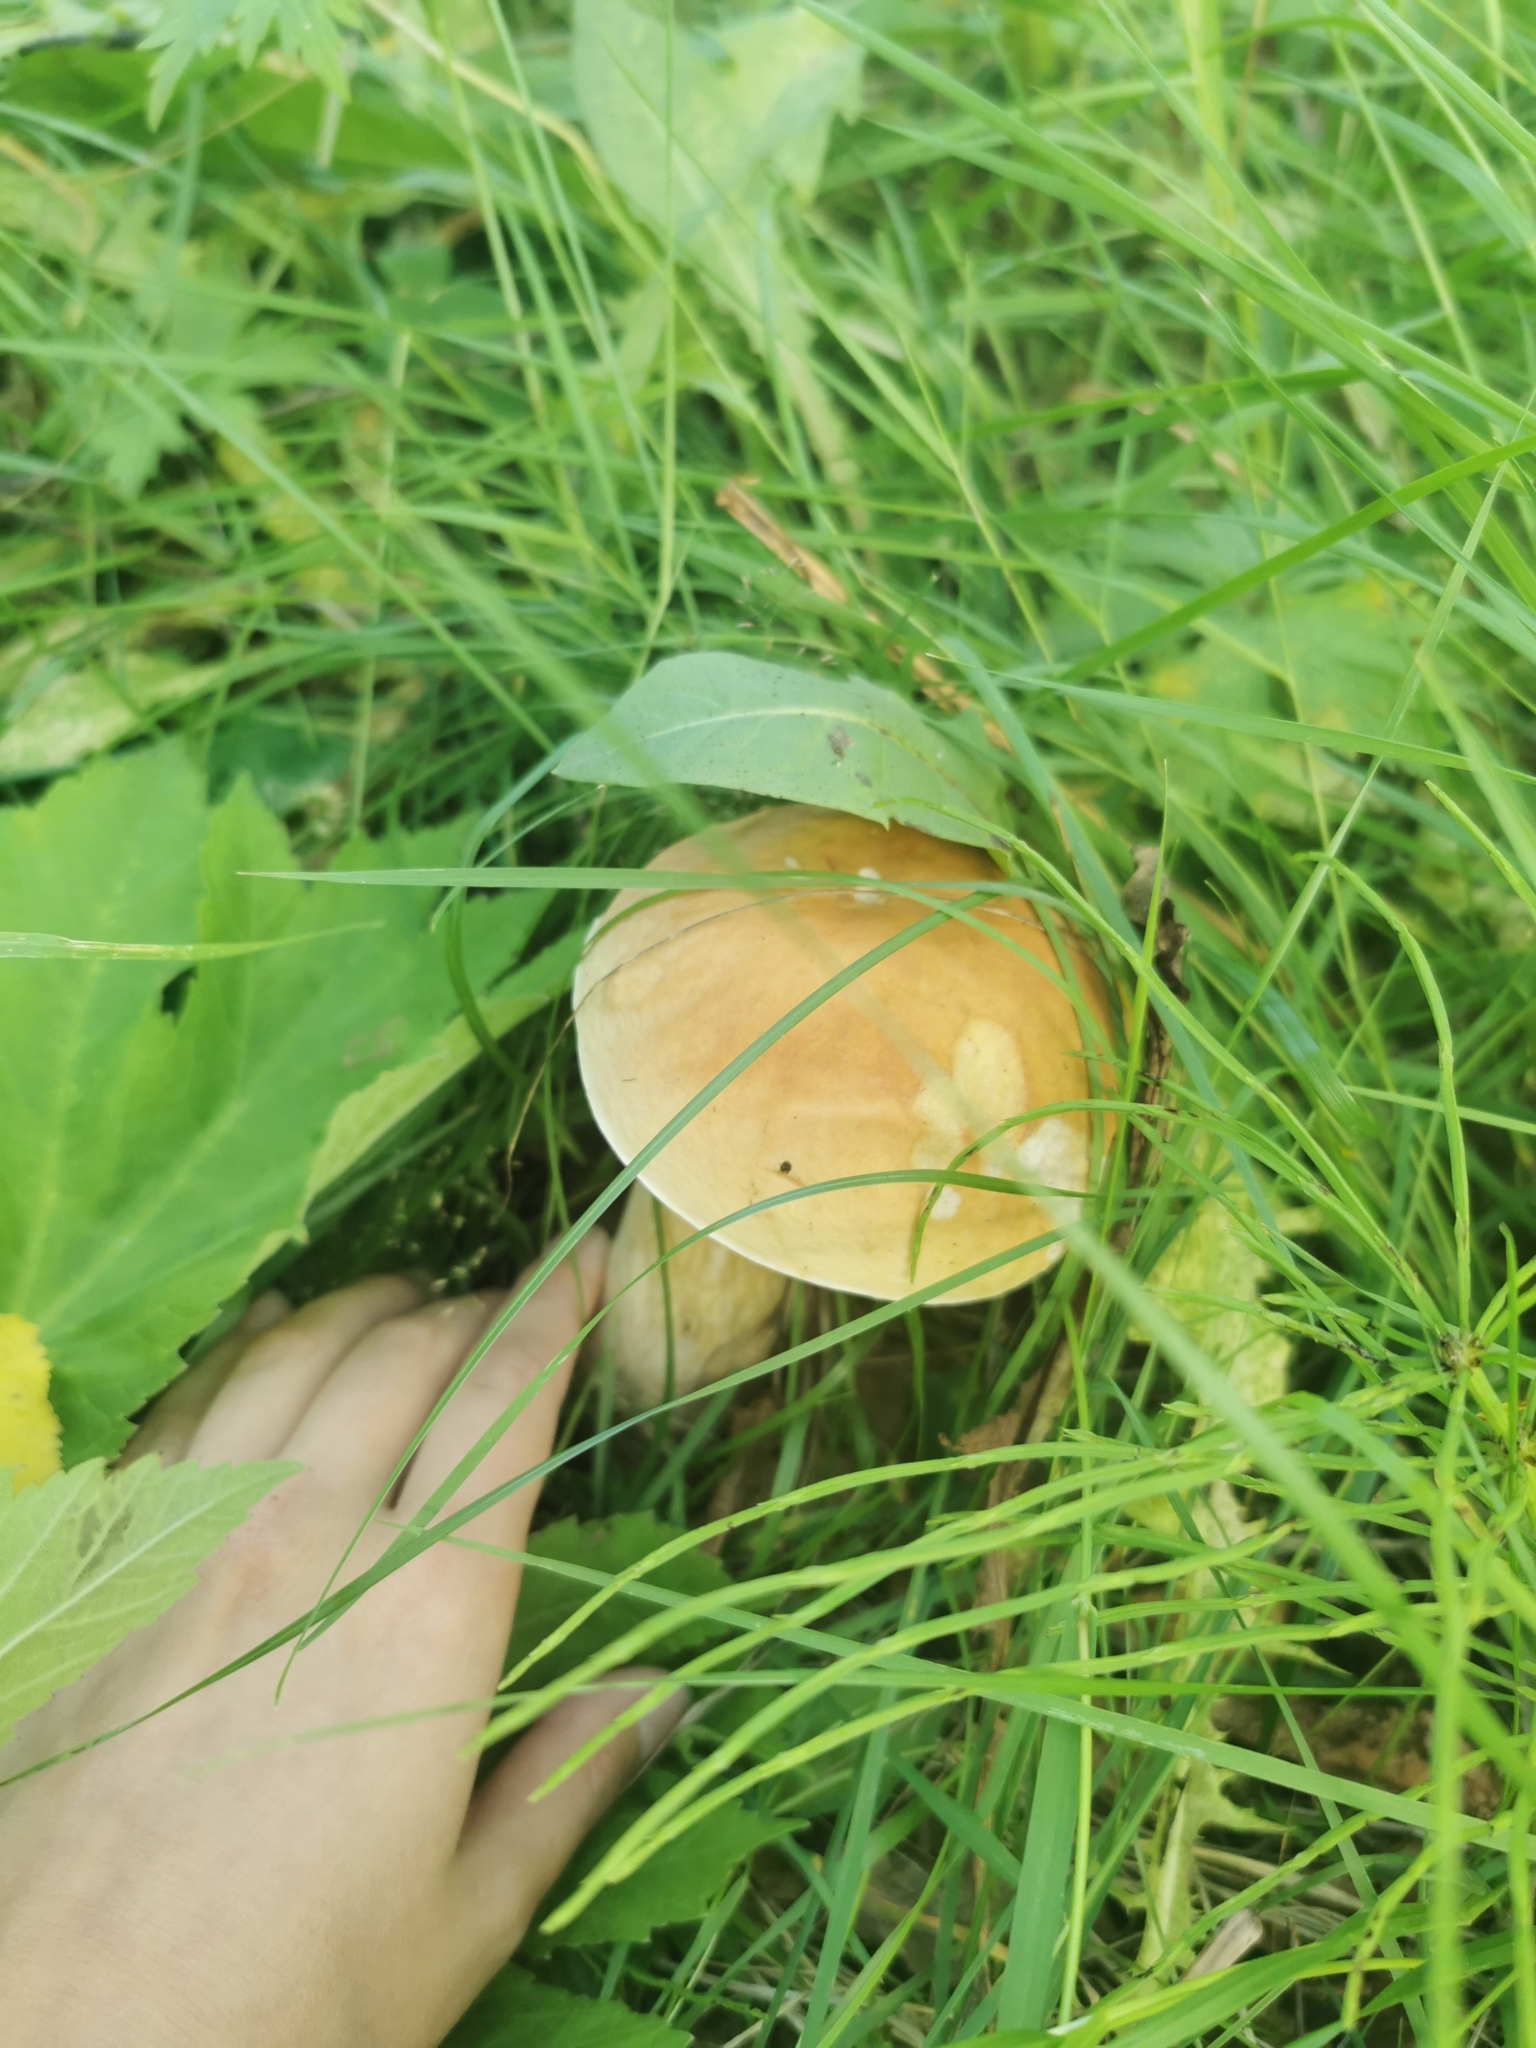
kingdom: Fungi
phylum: Basidiomycota
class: Agaricomycetes
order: Boletales
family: Boletaceae
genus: Boletus
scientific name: Boletus edulis
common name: Cep
